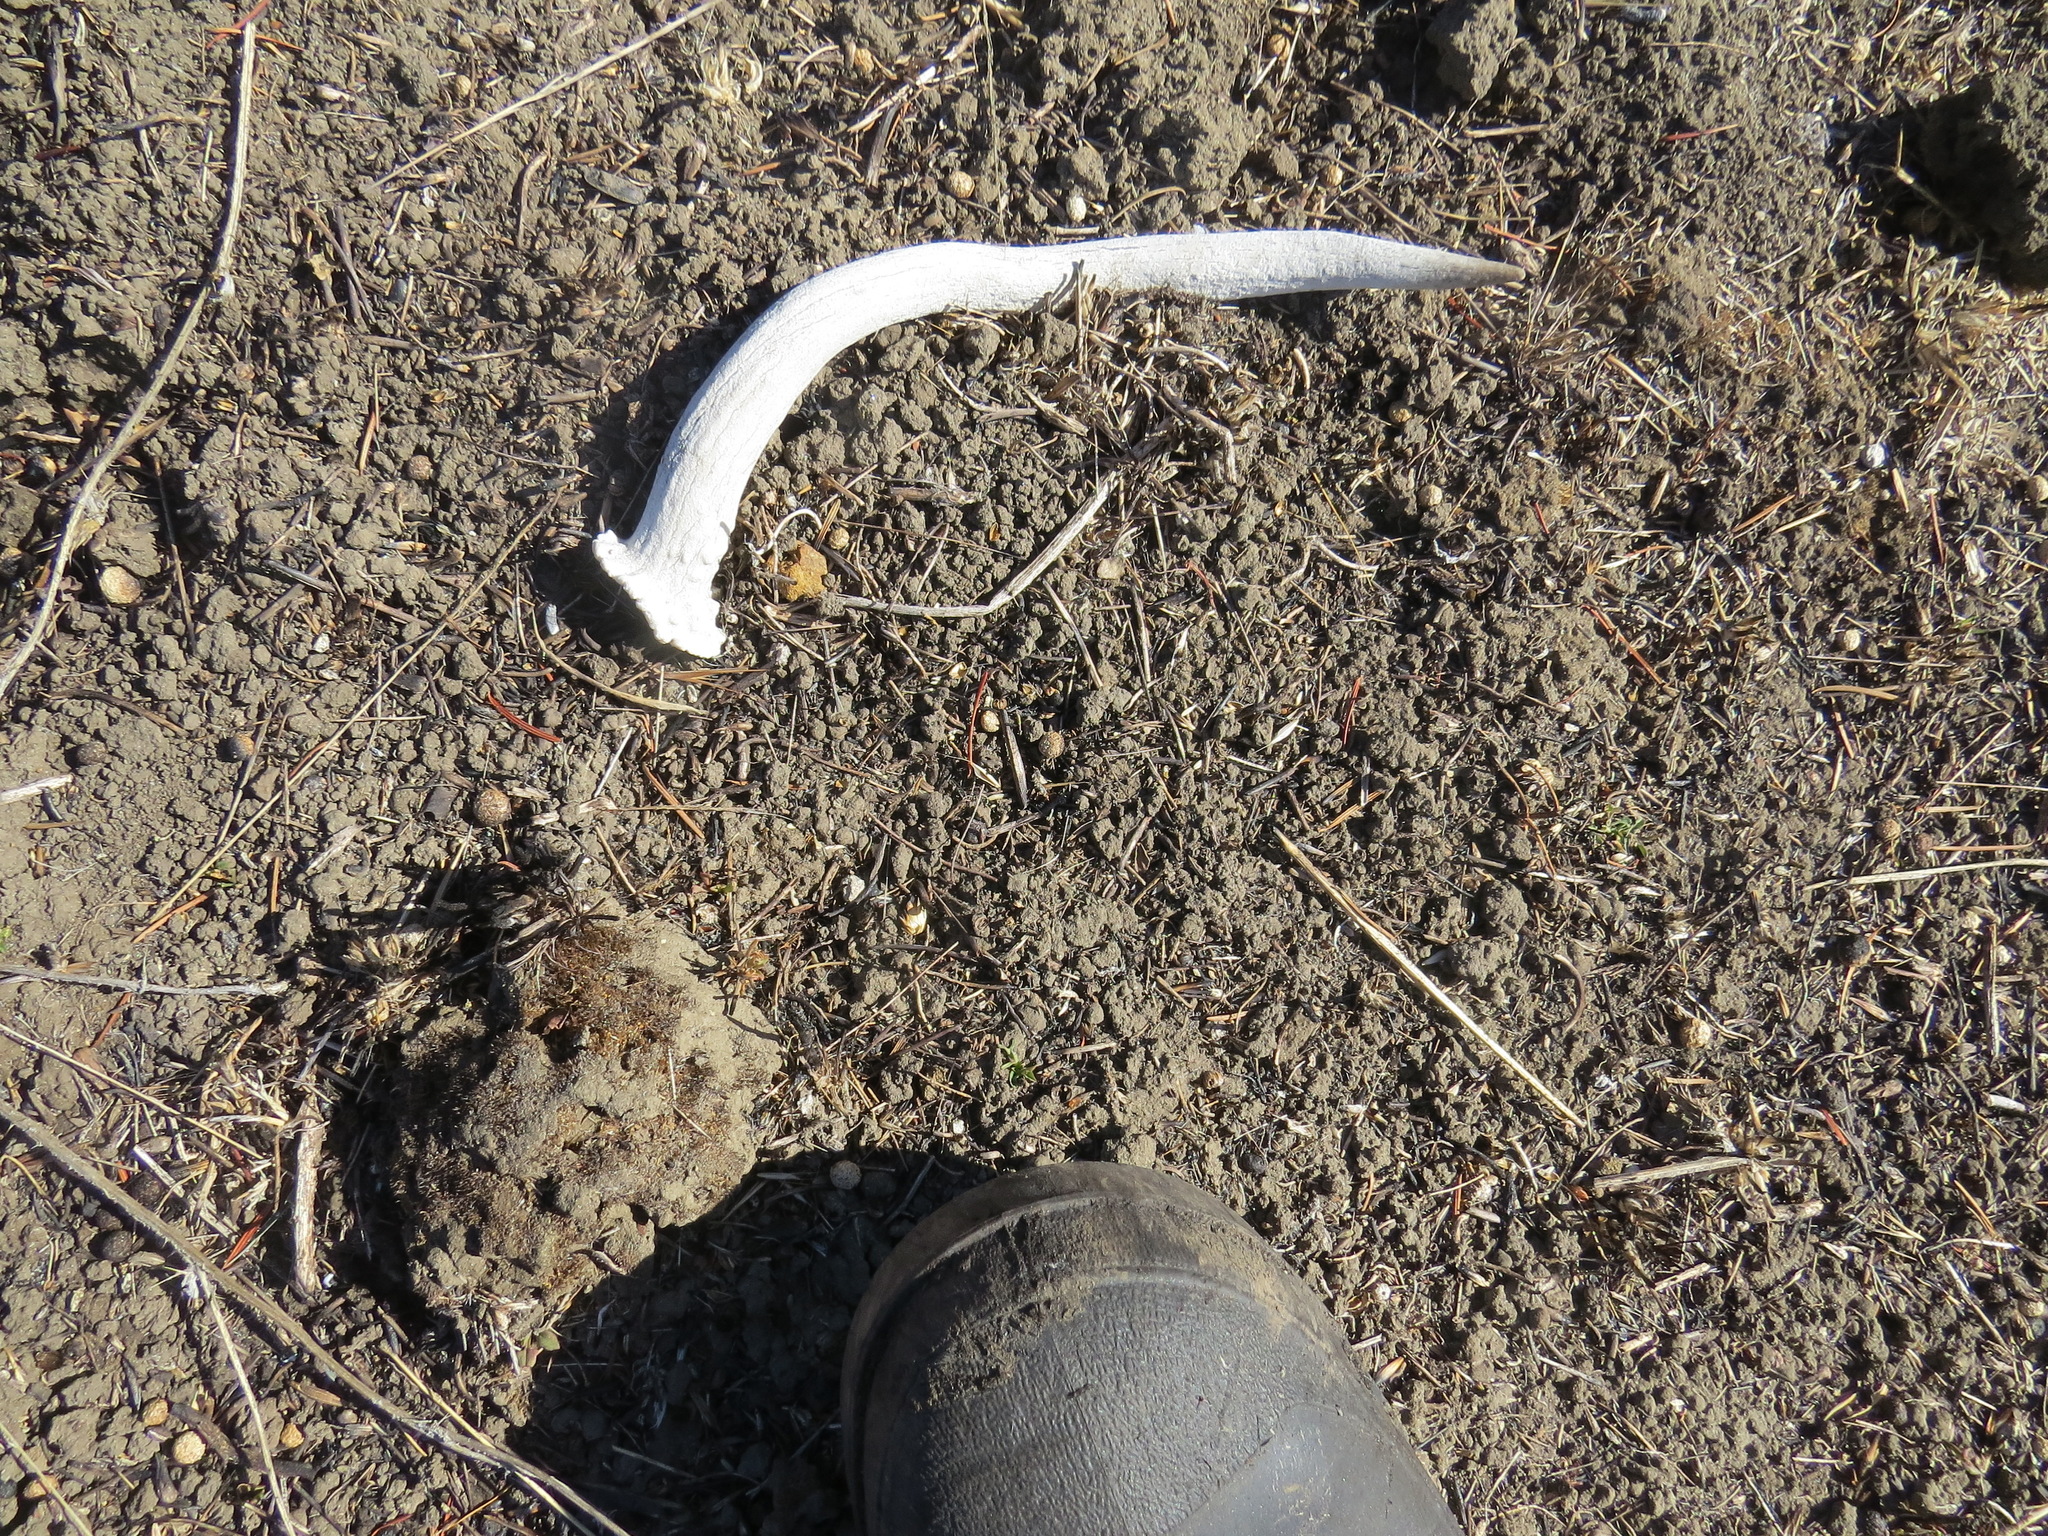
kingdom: Animalia
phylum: Chordata
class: Mammalia
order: Artiodactyla
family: Cervidae
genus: Odocoileus
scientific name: Odocoileus hemionus
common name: Mule deer
